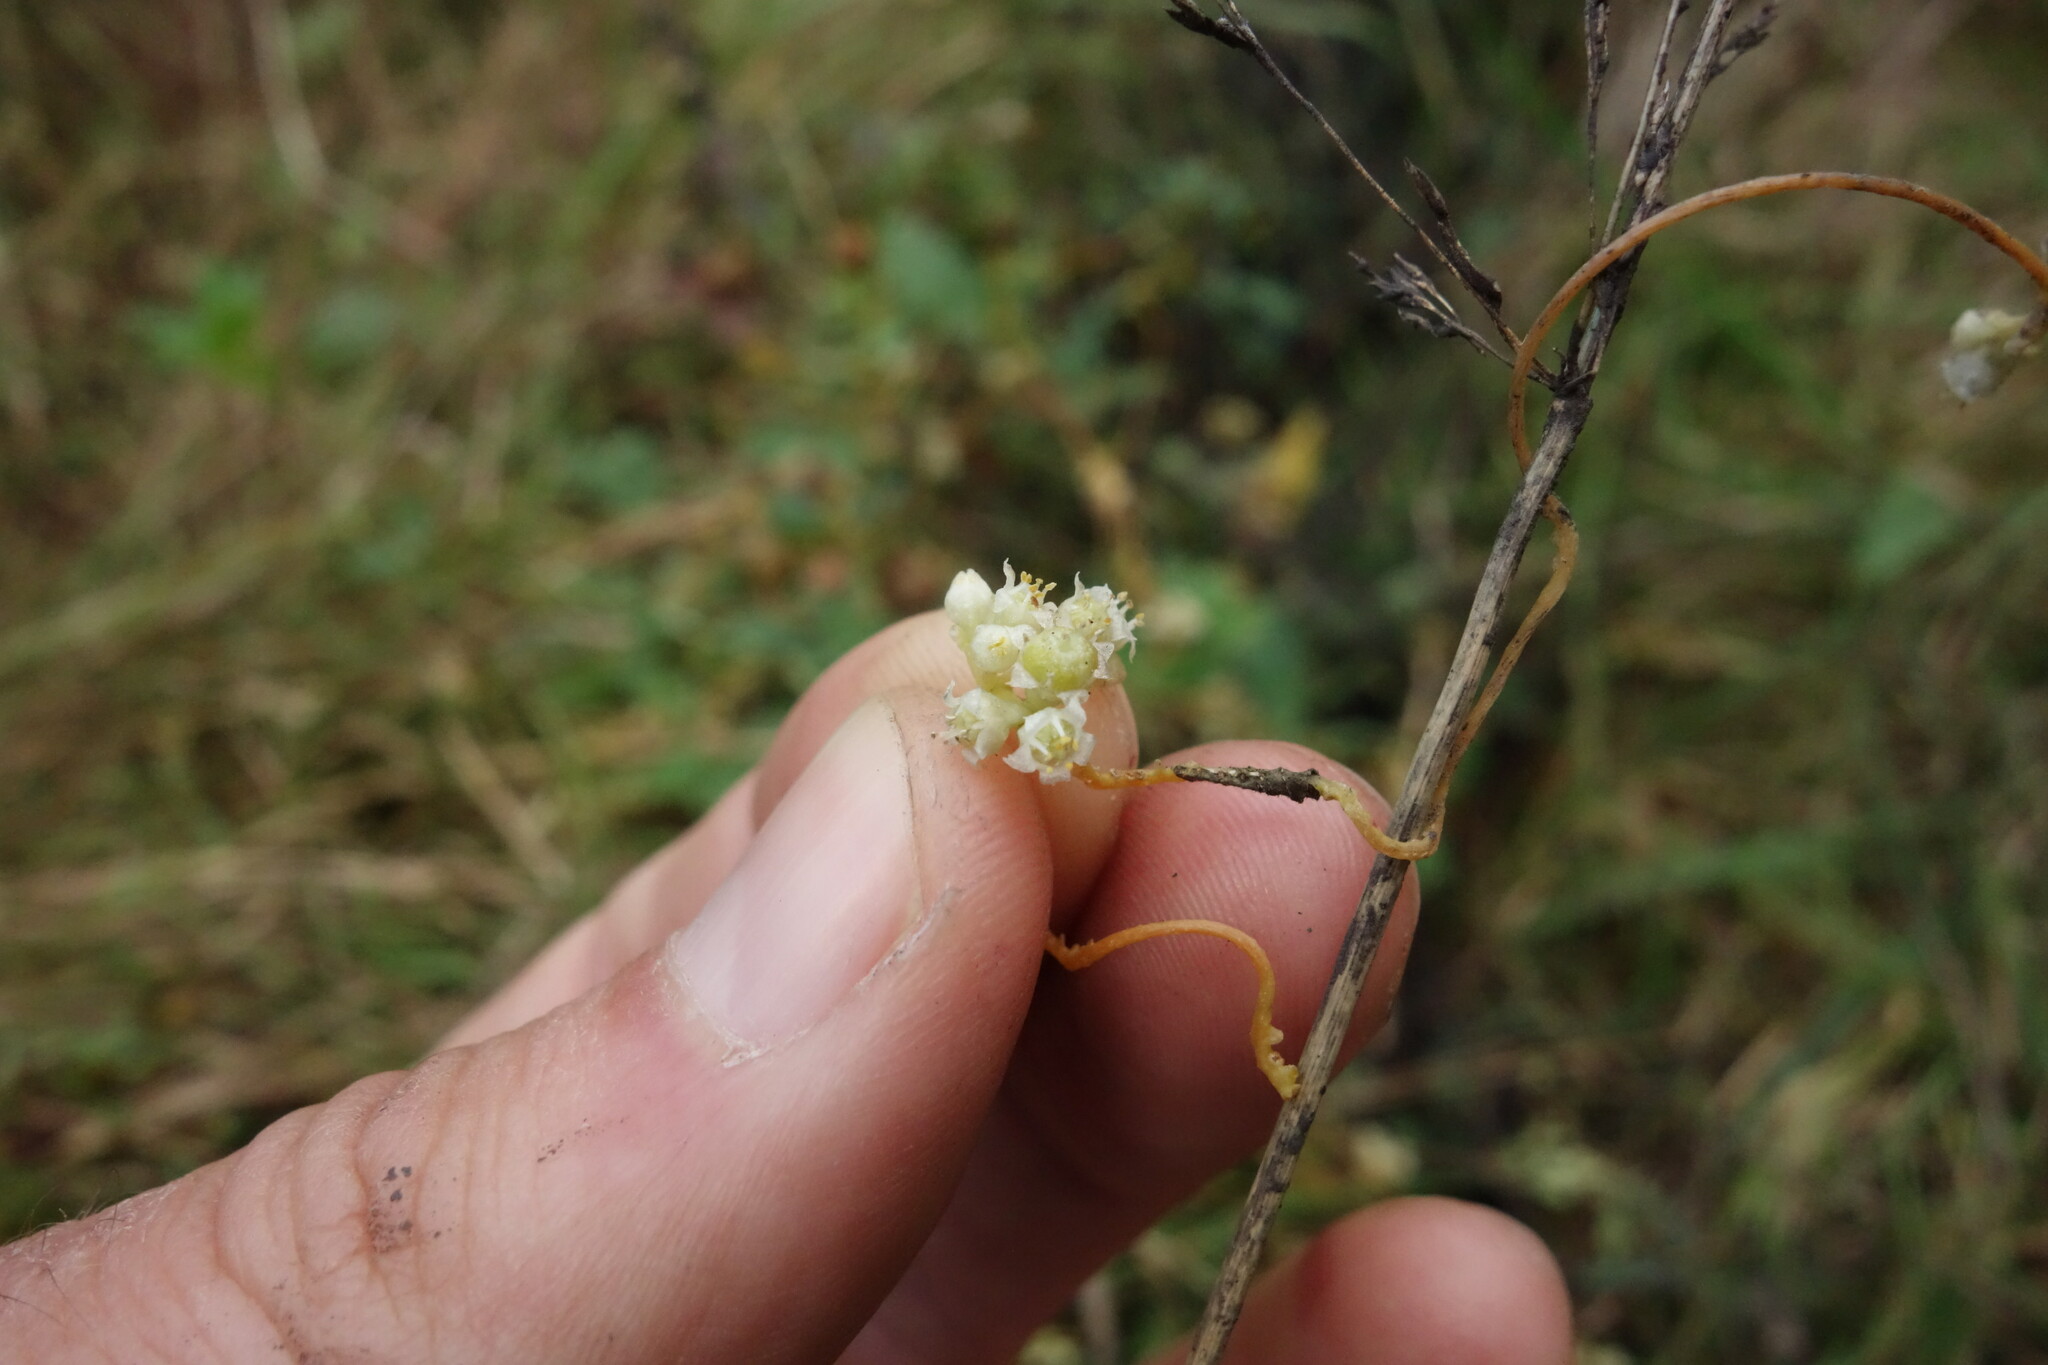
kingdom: Plantae
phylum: Tracheophyta
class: Magnoliopsida
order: Solanales
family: Convolvulaceae
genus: Cuscuta
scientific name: Cuscuta campestris
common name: Yellow dodder
